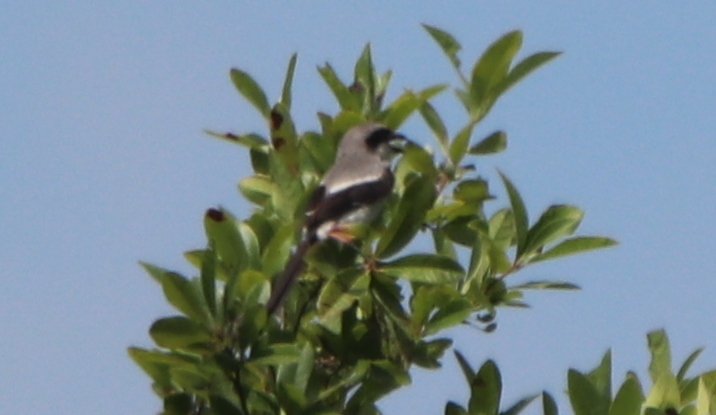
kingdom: Animalia
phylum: Chordata
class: Aves
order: Passeriformes
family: Laniidae
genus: Lanius
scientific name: Lanius ludovicianus
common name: Loggerhead shrike
